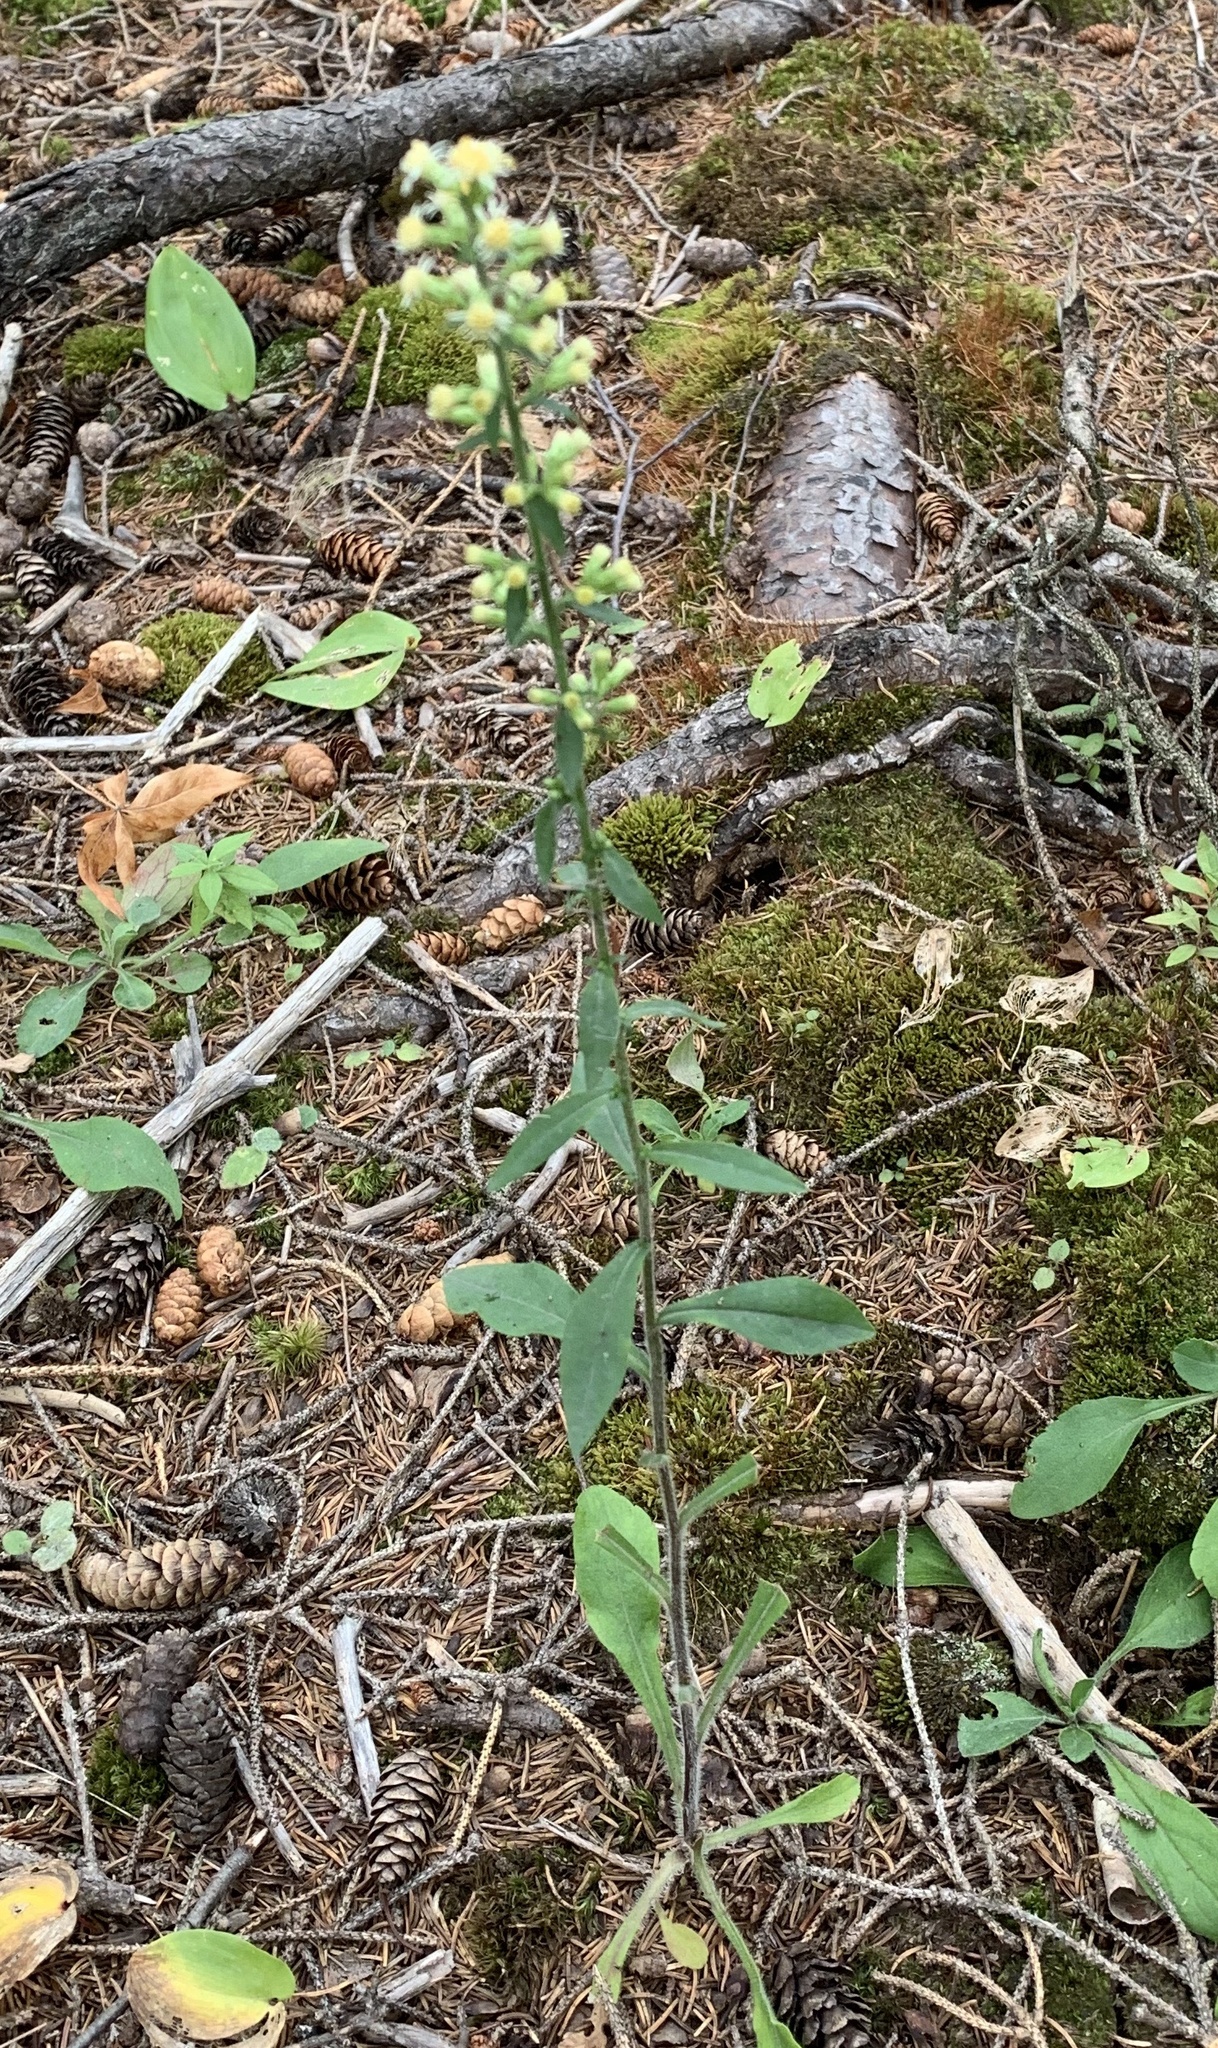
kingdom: Plantae
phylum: Tracheophyta
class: Magnoliopsida
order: Asterales
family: Asteraceae
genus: Solidago
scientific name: Solidago bicolor
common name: Silverrod
